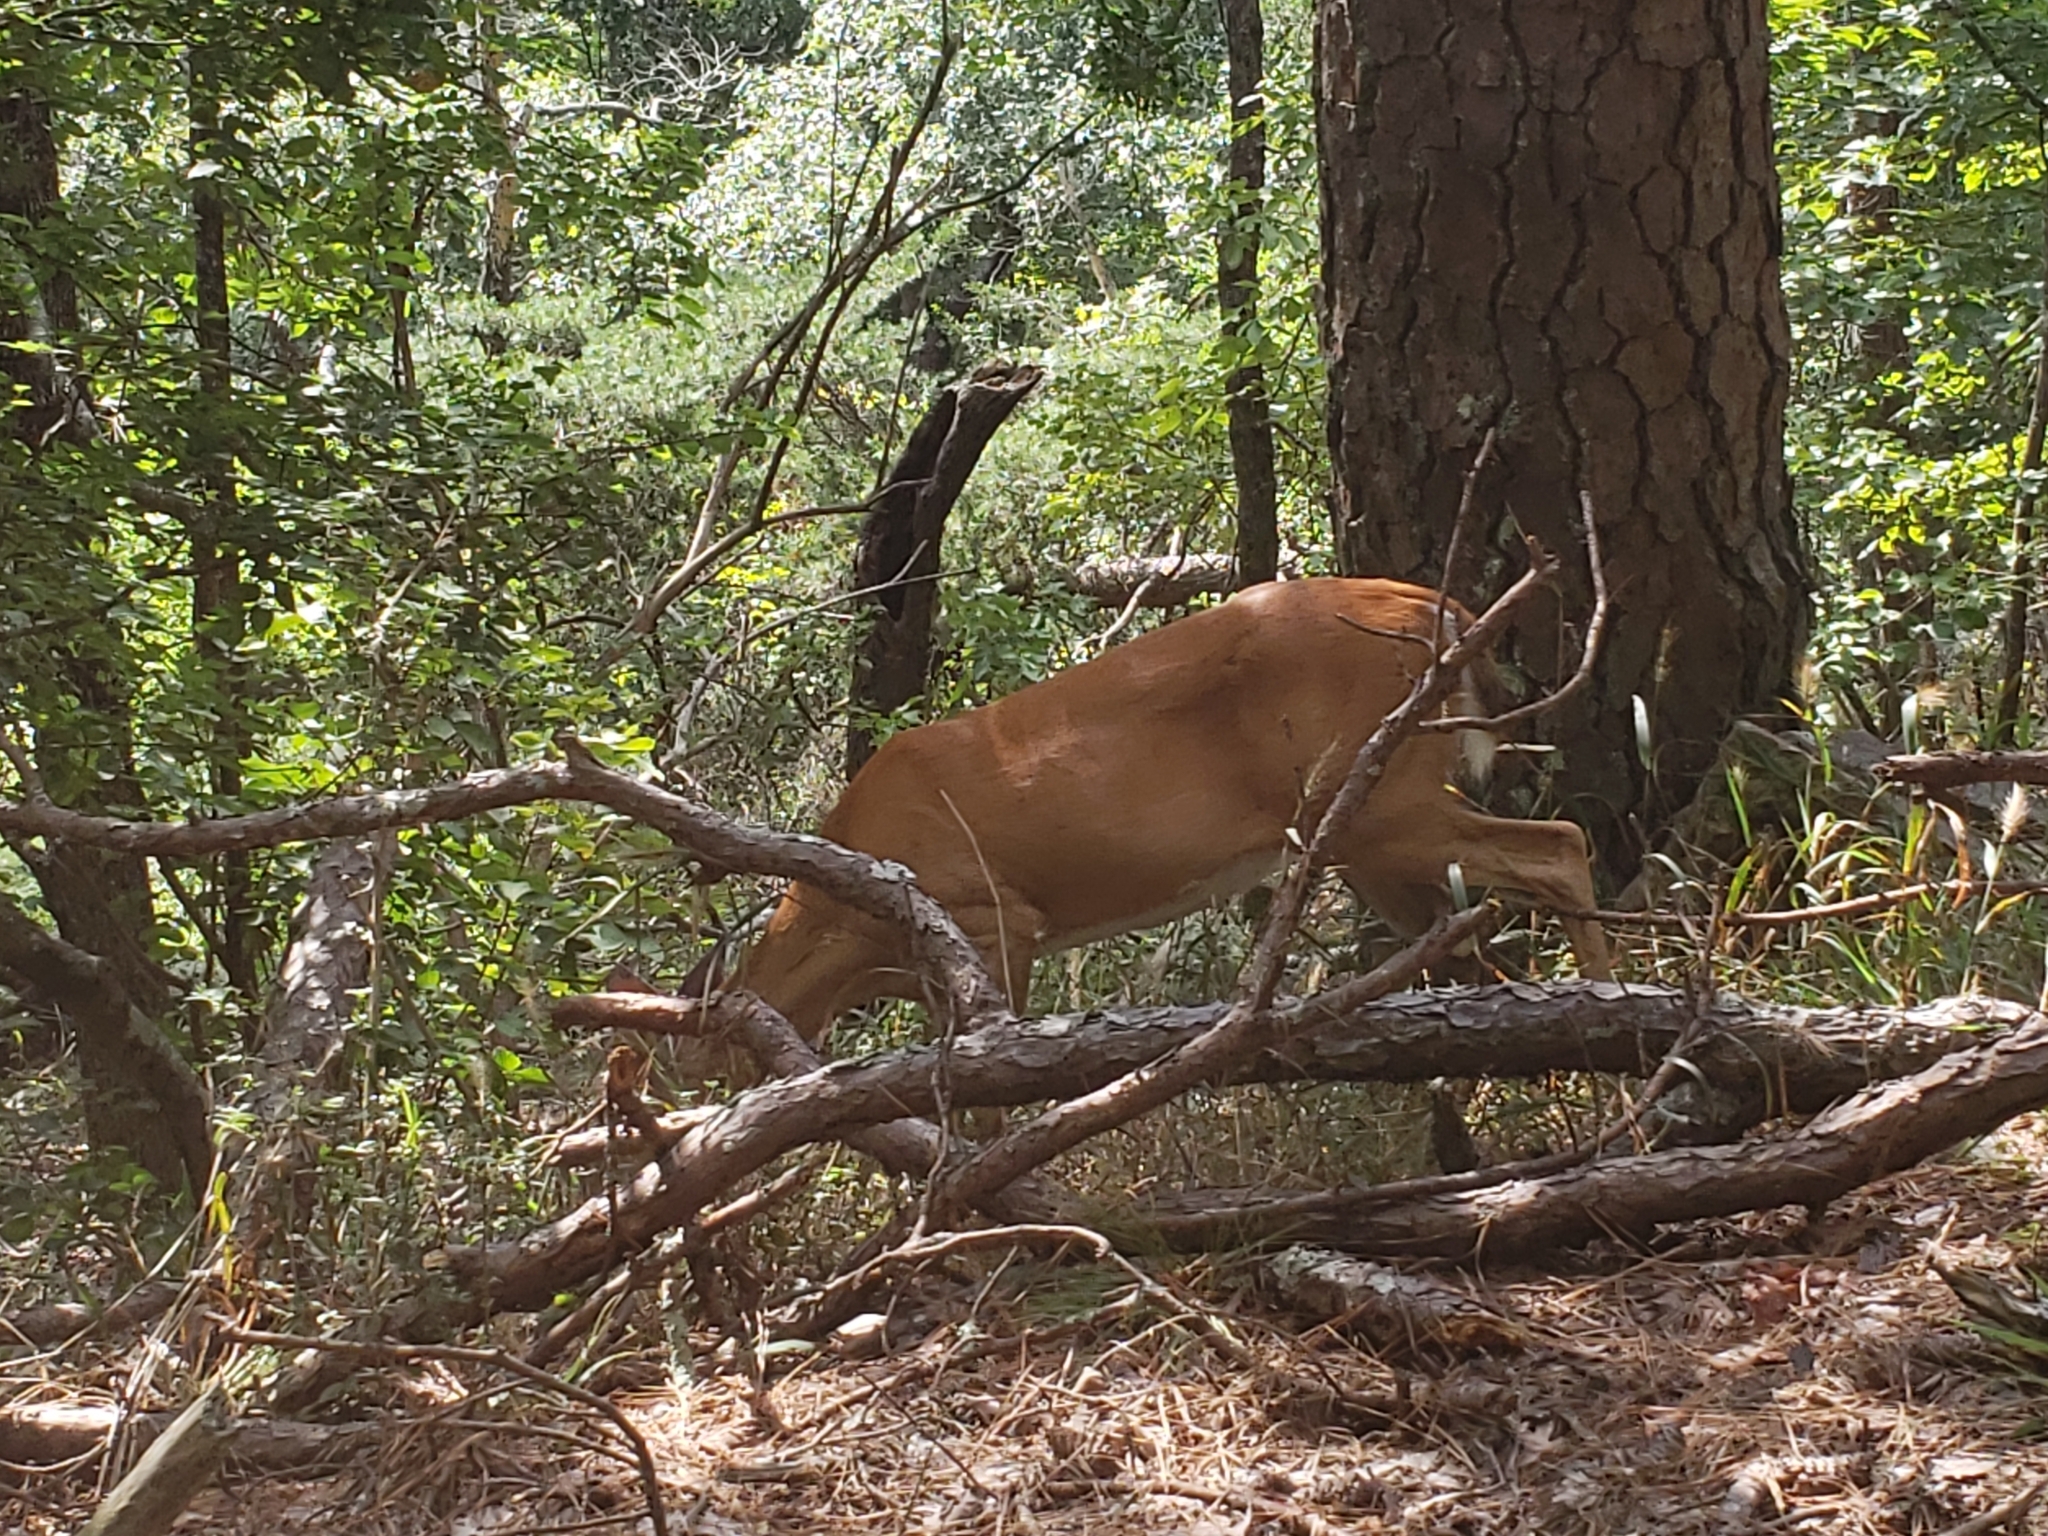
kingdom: Animalia
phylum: Chordata
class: Mammalia
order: Artiodactyla
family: Cervidae
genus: Odocoileus
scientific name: Odocoileus virginianus
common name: White-tailed deer
